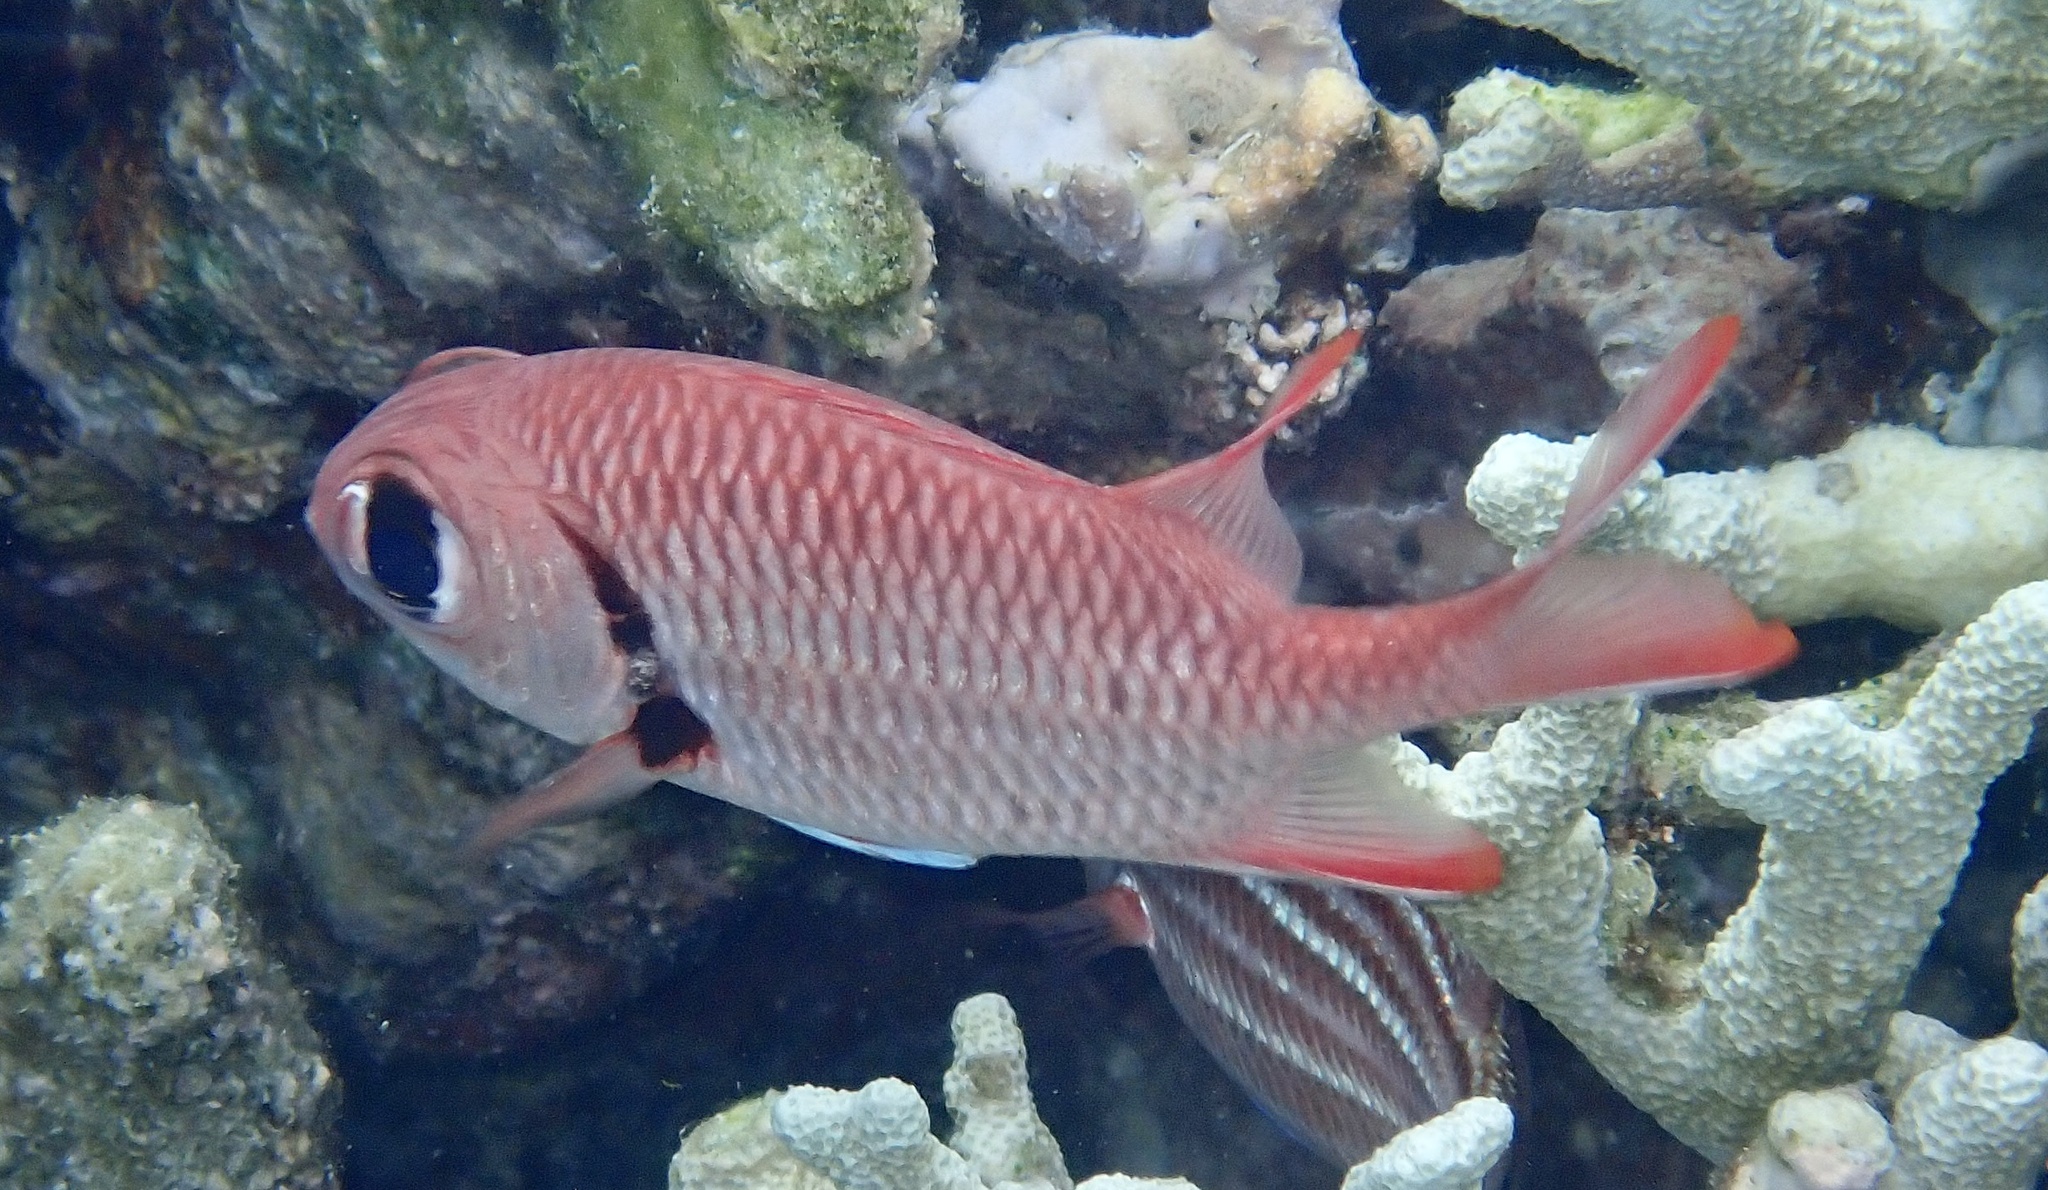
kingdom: Animalia
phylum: Chordata
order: Beryciformes
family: Holocentridae
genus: Myripristis
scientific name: Myripristis murdjan
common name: Big-eye soldierfish
